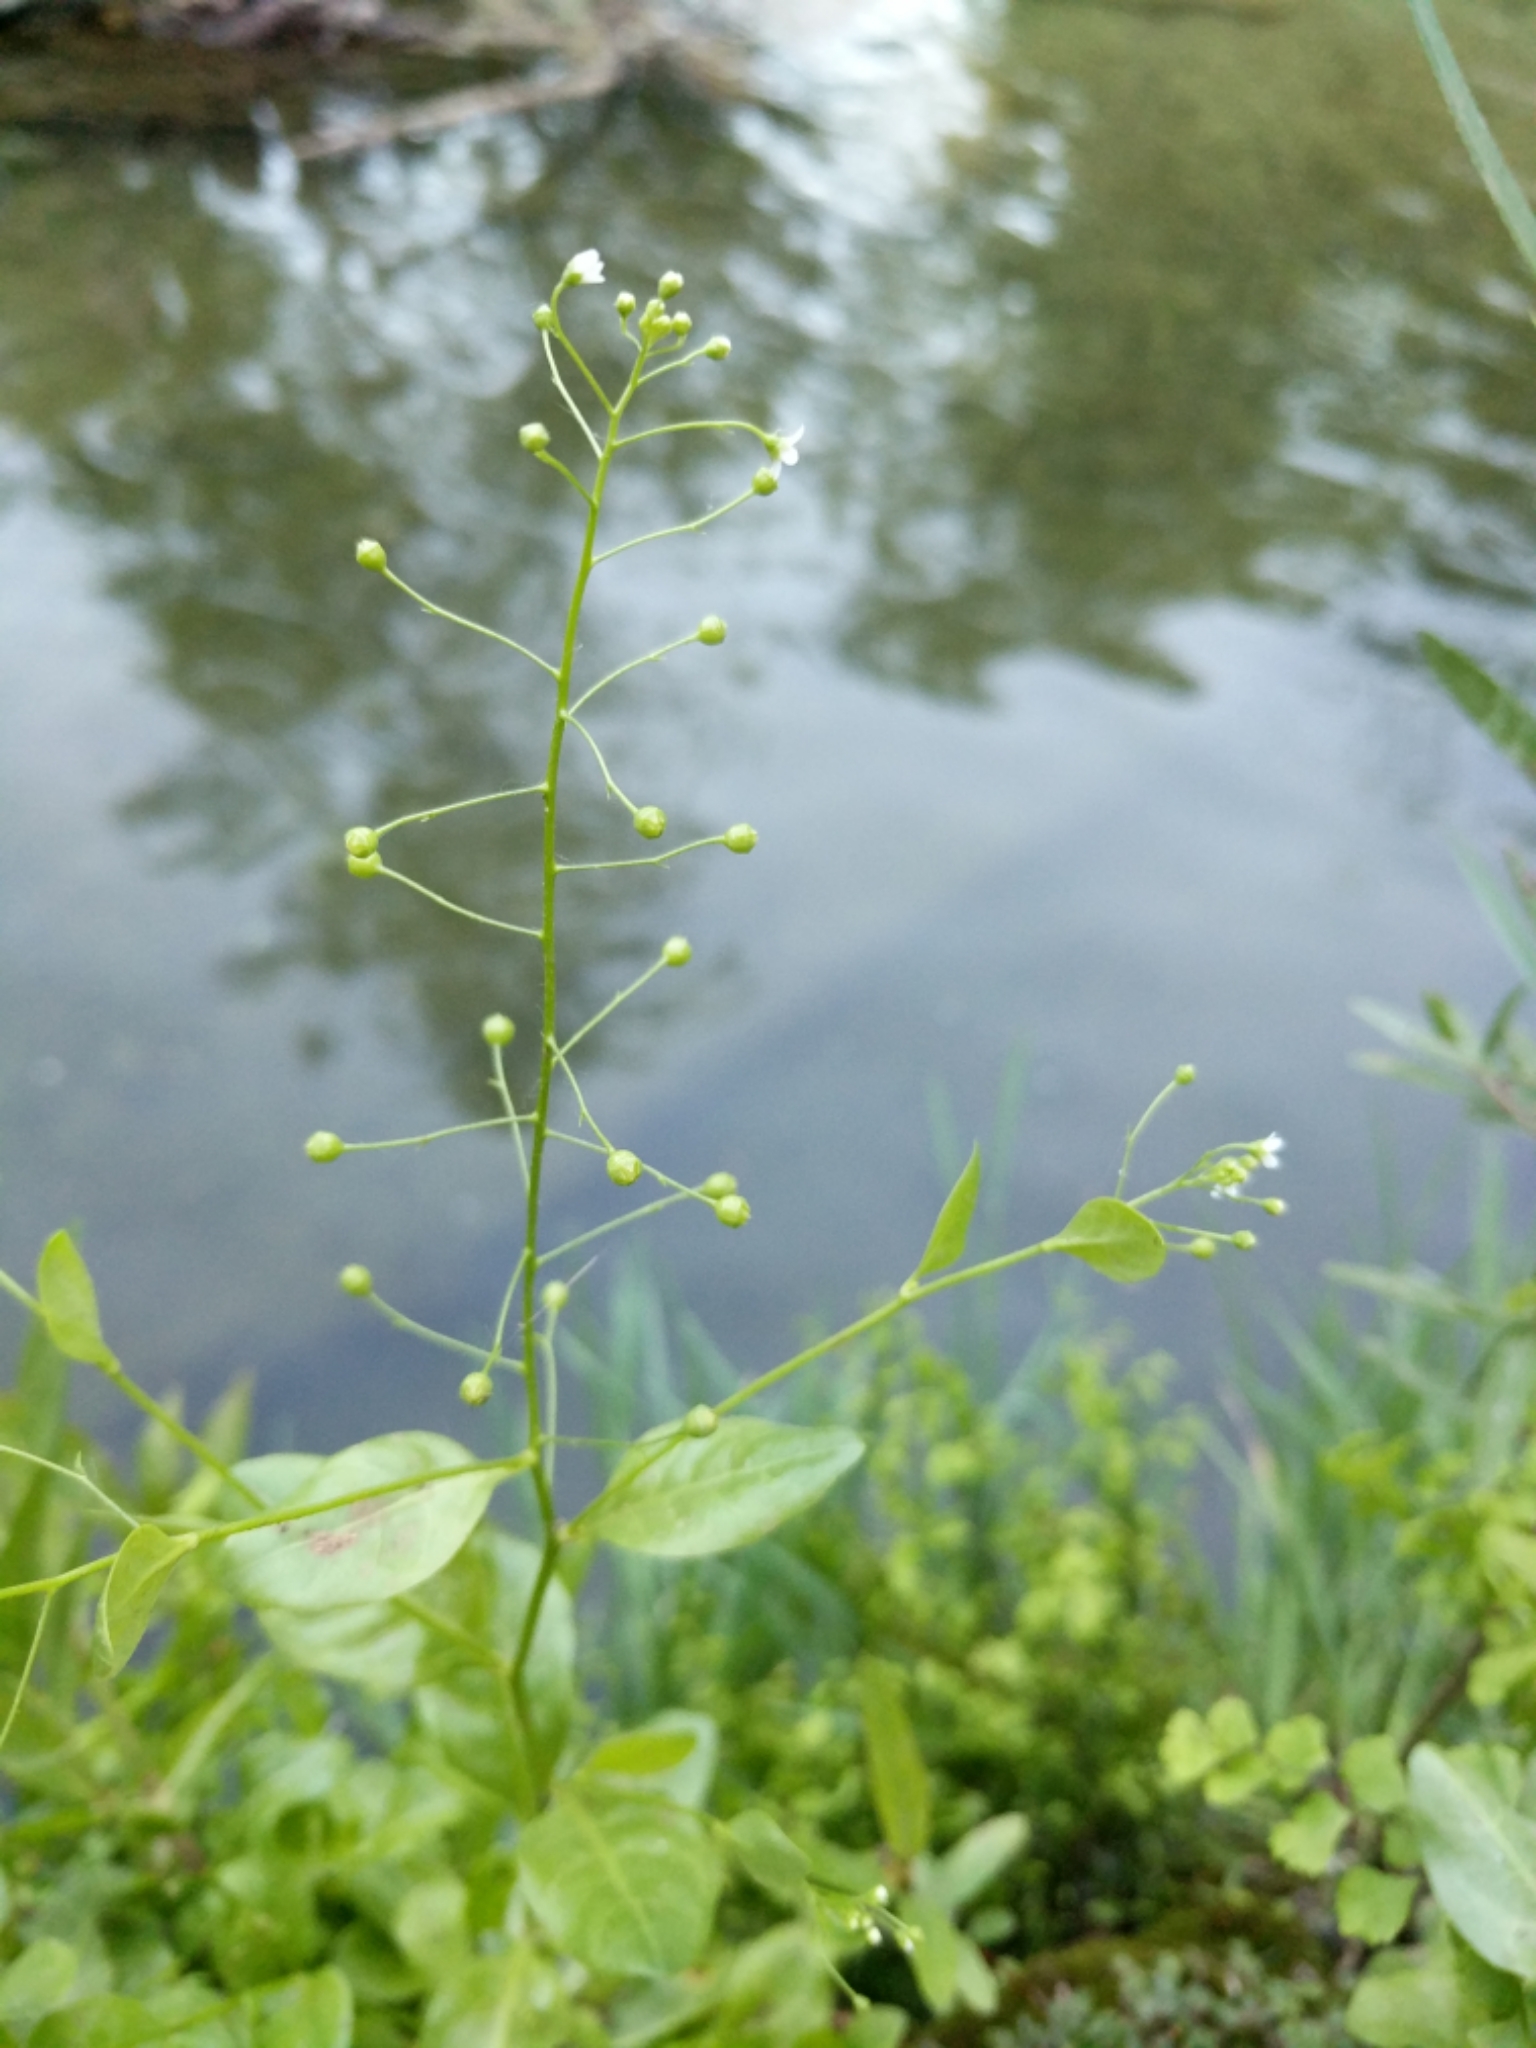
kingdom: Plantae
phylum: Tracheophyta
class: Magnoliopsida
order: Ericales
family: Primulaceae
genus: Samolus
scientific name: Samolus parviflorus
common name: False water pimpernel
